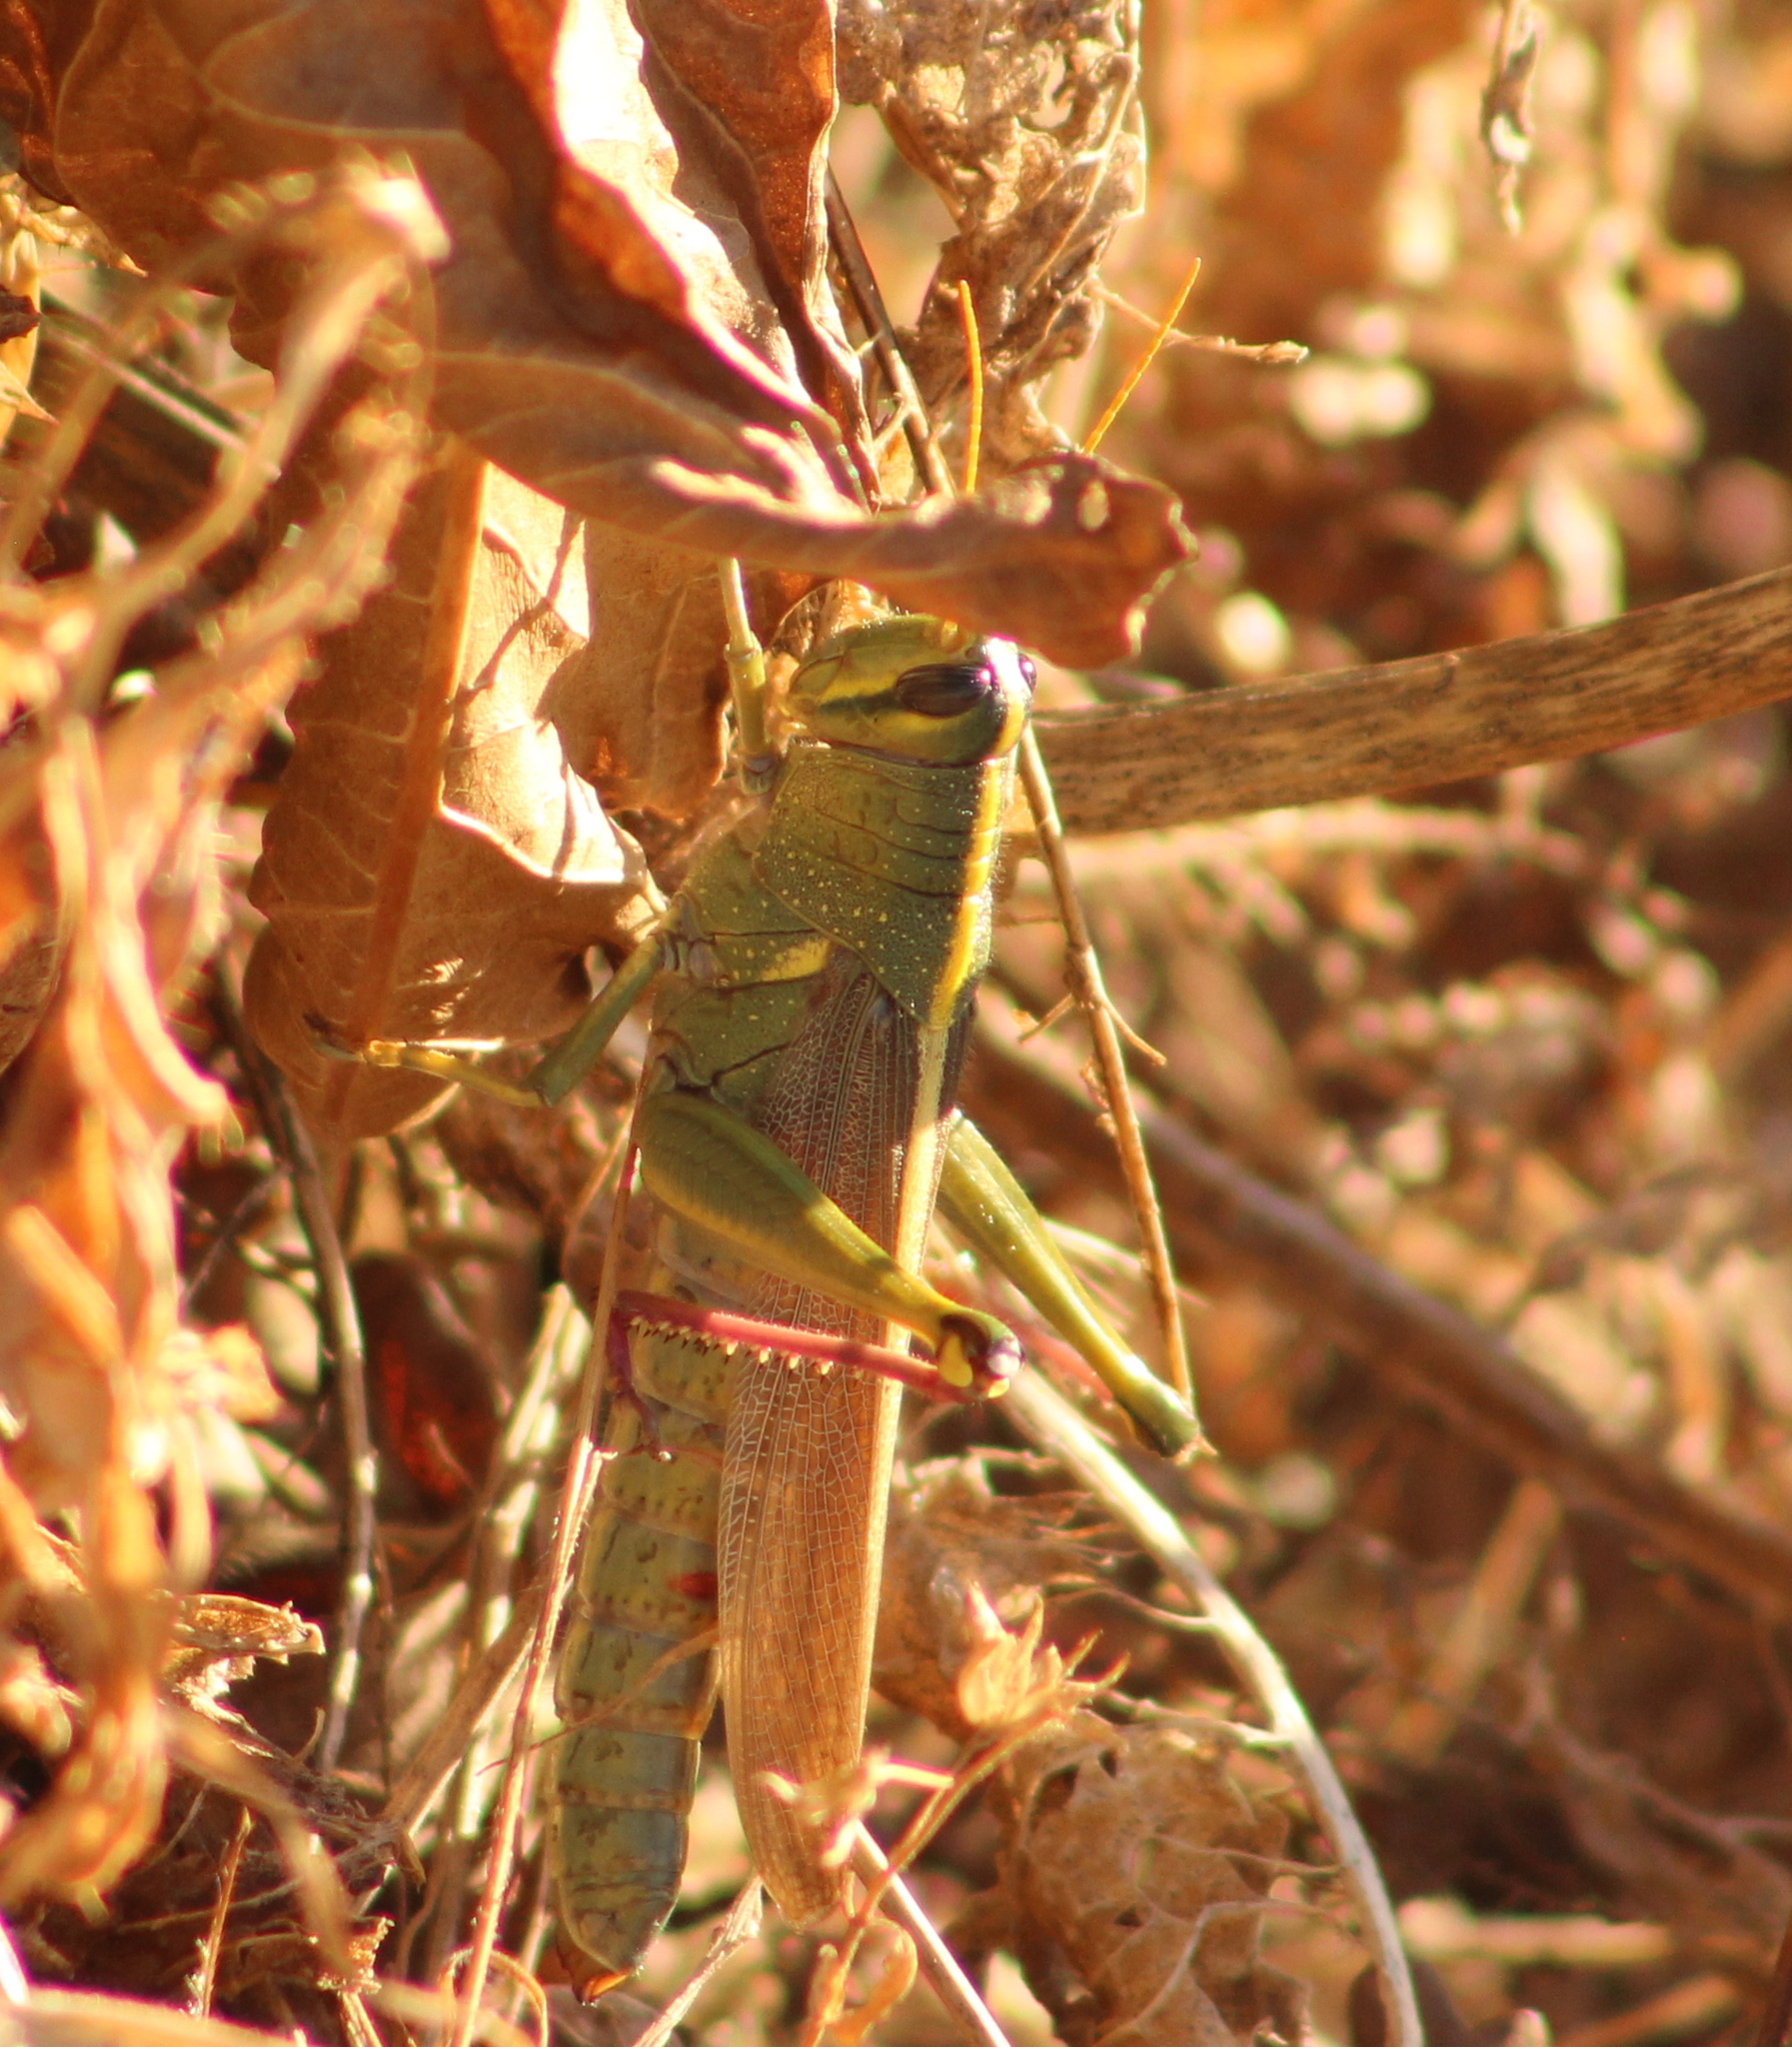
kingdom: Animalia
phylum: Arthropoda
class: Insecta
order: Orthoptera
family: Acrididae
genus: Schistocerca
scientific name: Schistocerca lineata
